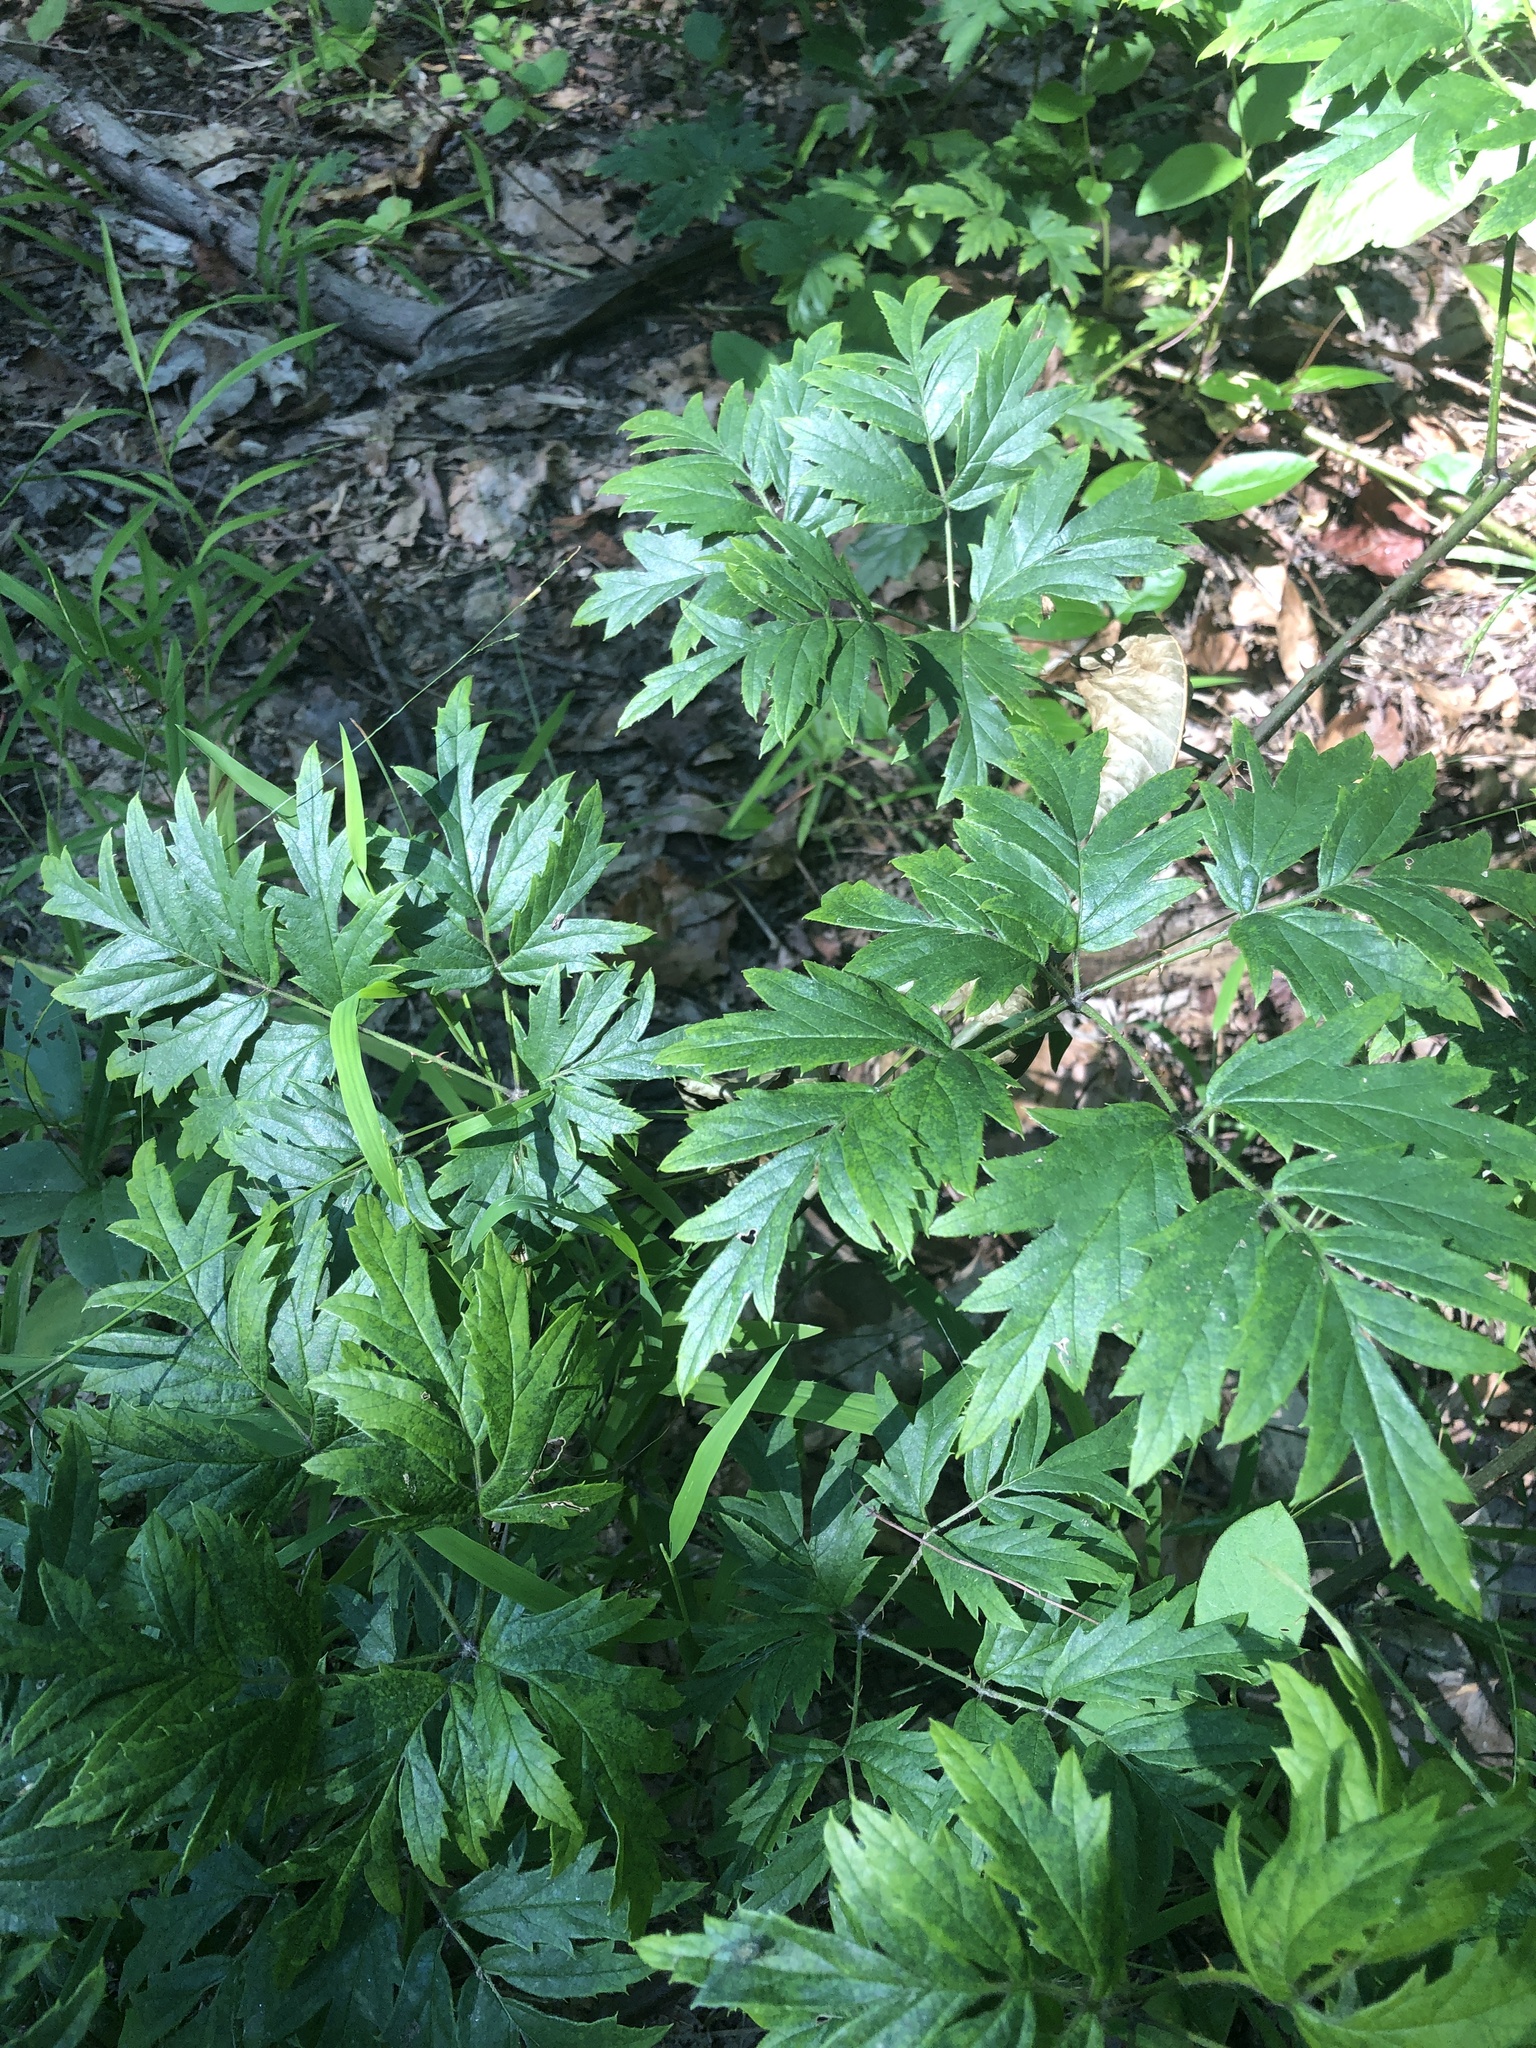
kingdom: Plantae
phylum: Tracheophyta
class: Magnoliopsida
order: Rosales
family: Rosaceae
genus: Rubus
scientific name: Rubus laciniatus
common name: Evergreen blackberry
